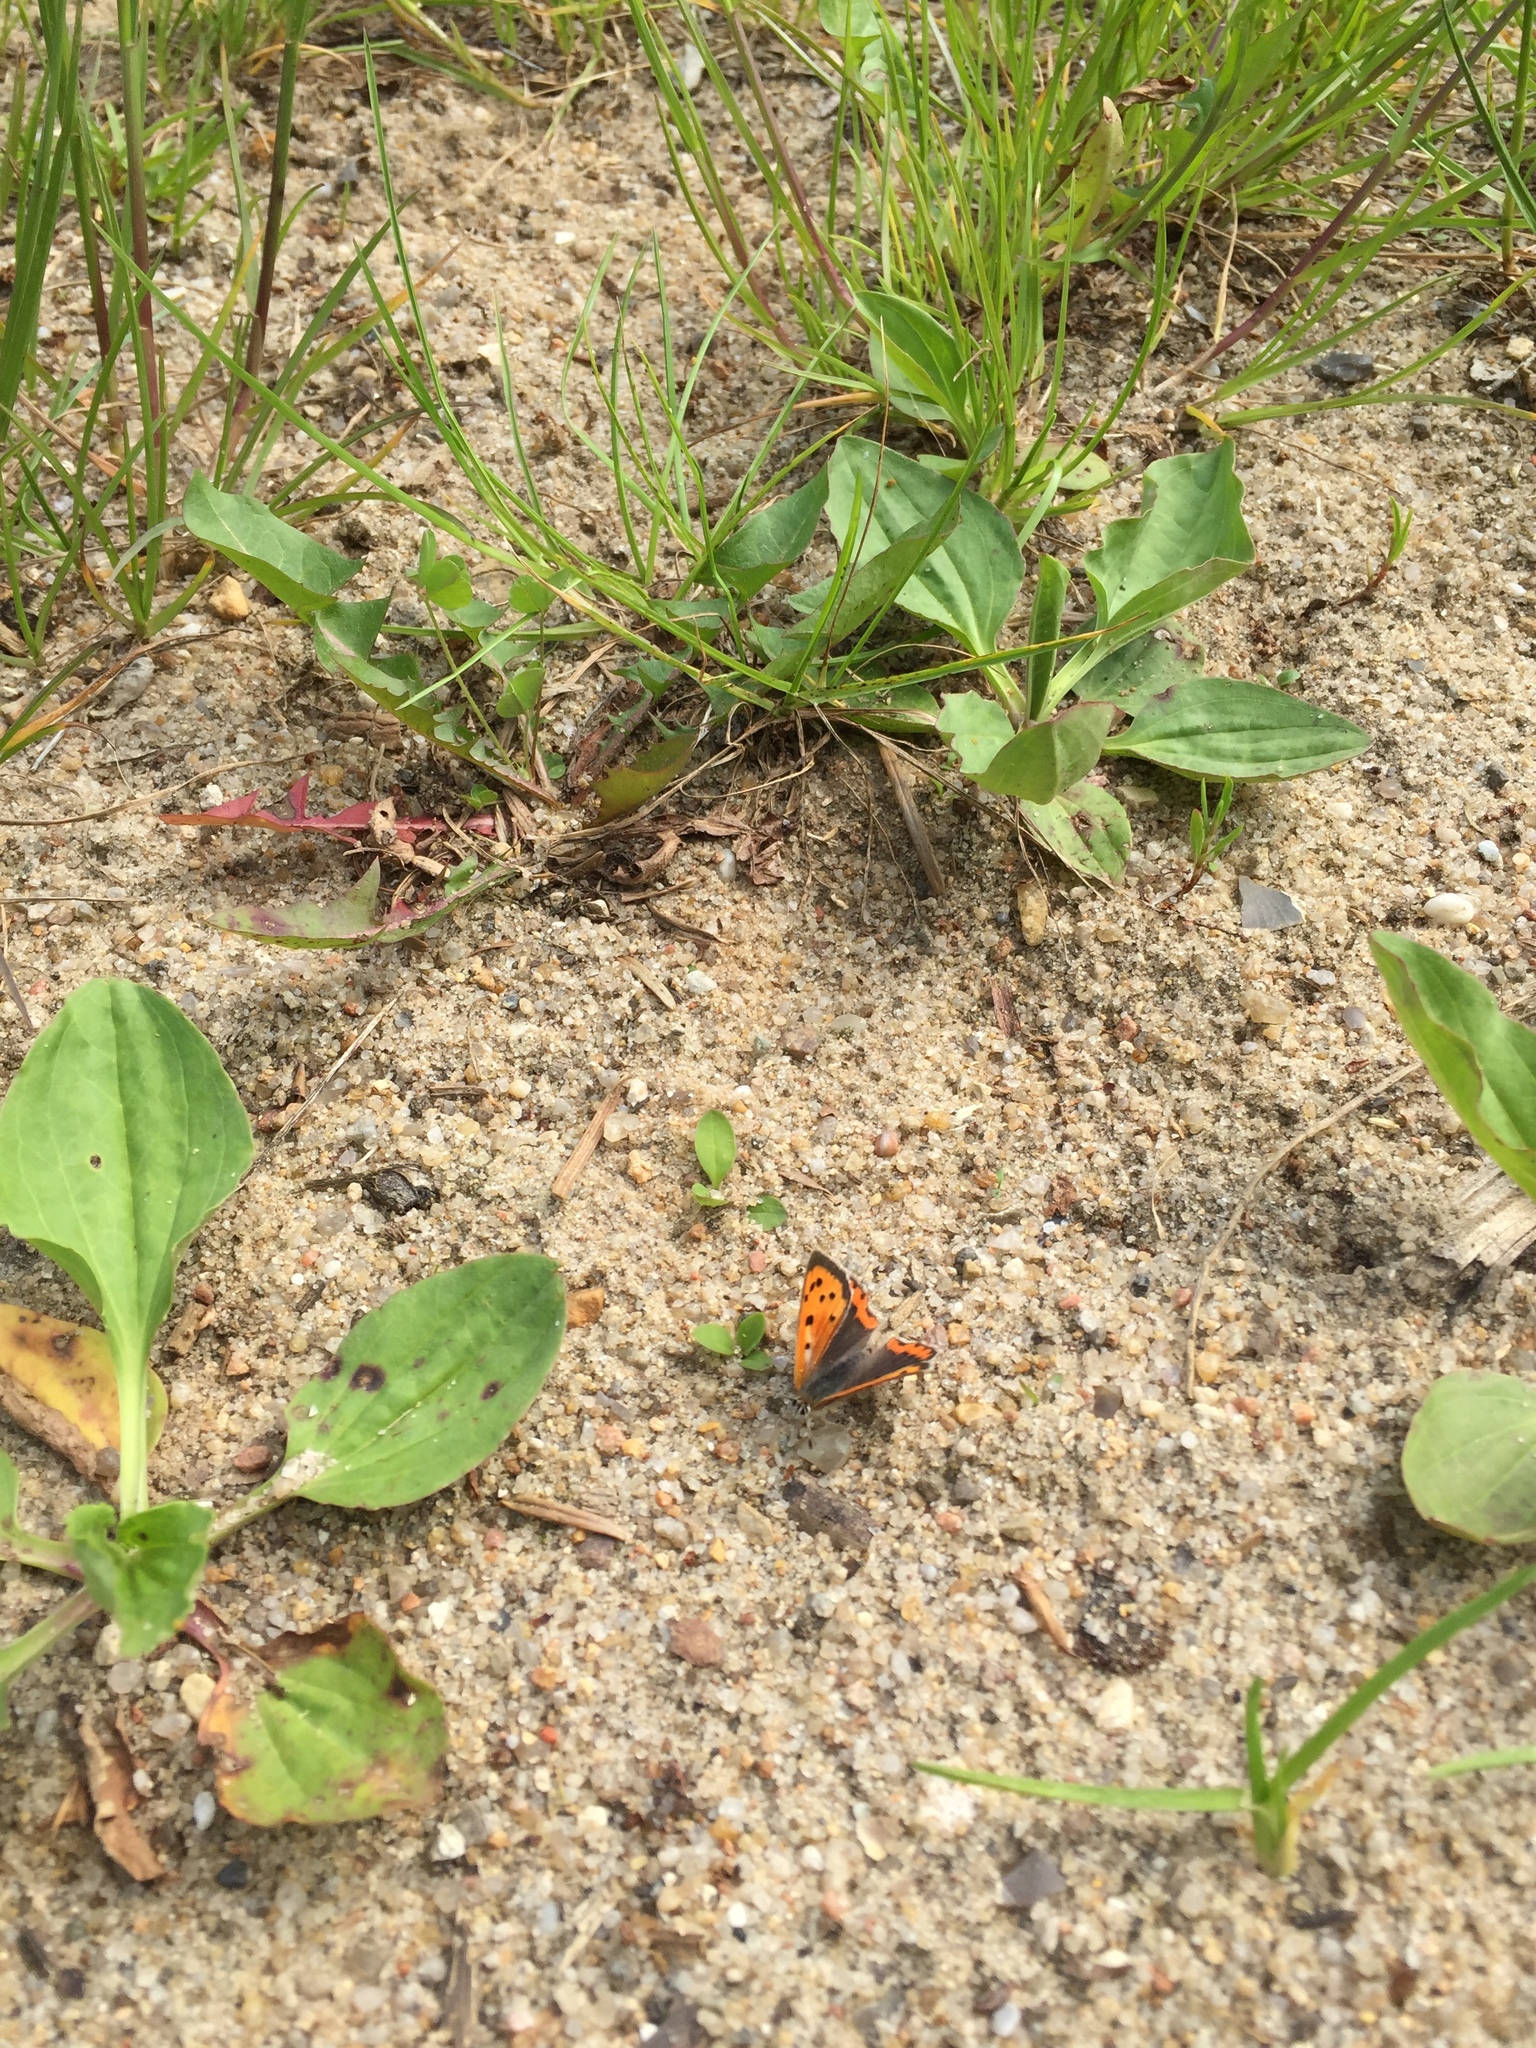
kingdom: Animalia
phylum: Arthropoda
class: Insecta
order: Lepidoptera
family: Lycaenidae
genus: Lycaena
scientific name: Lycaena phlaeas
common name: Small copper
